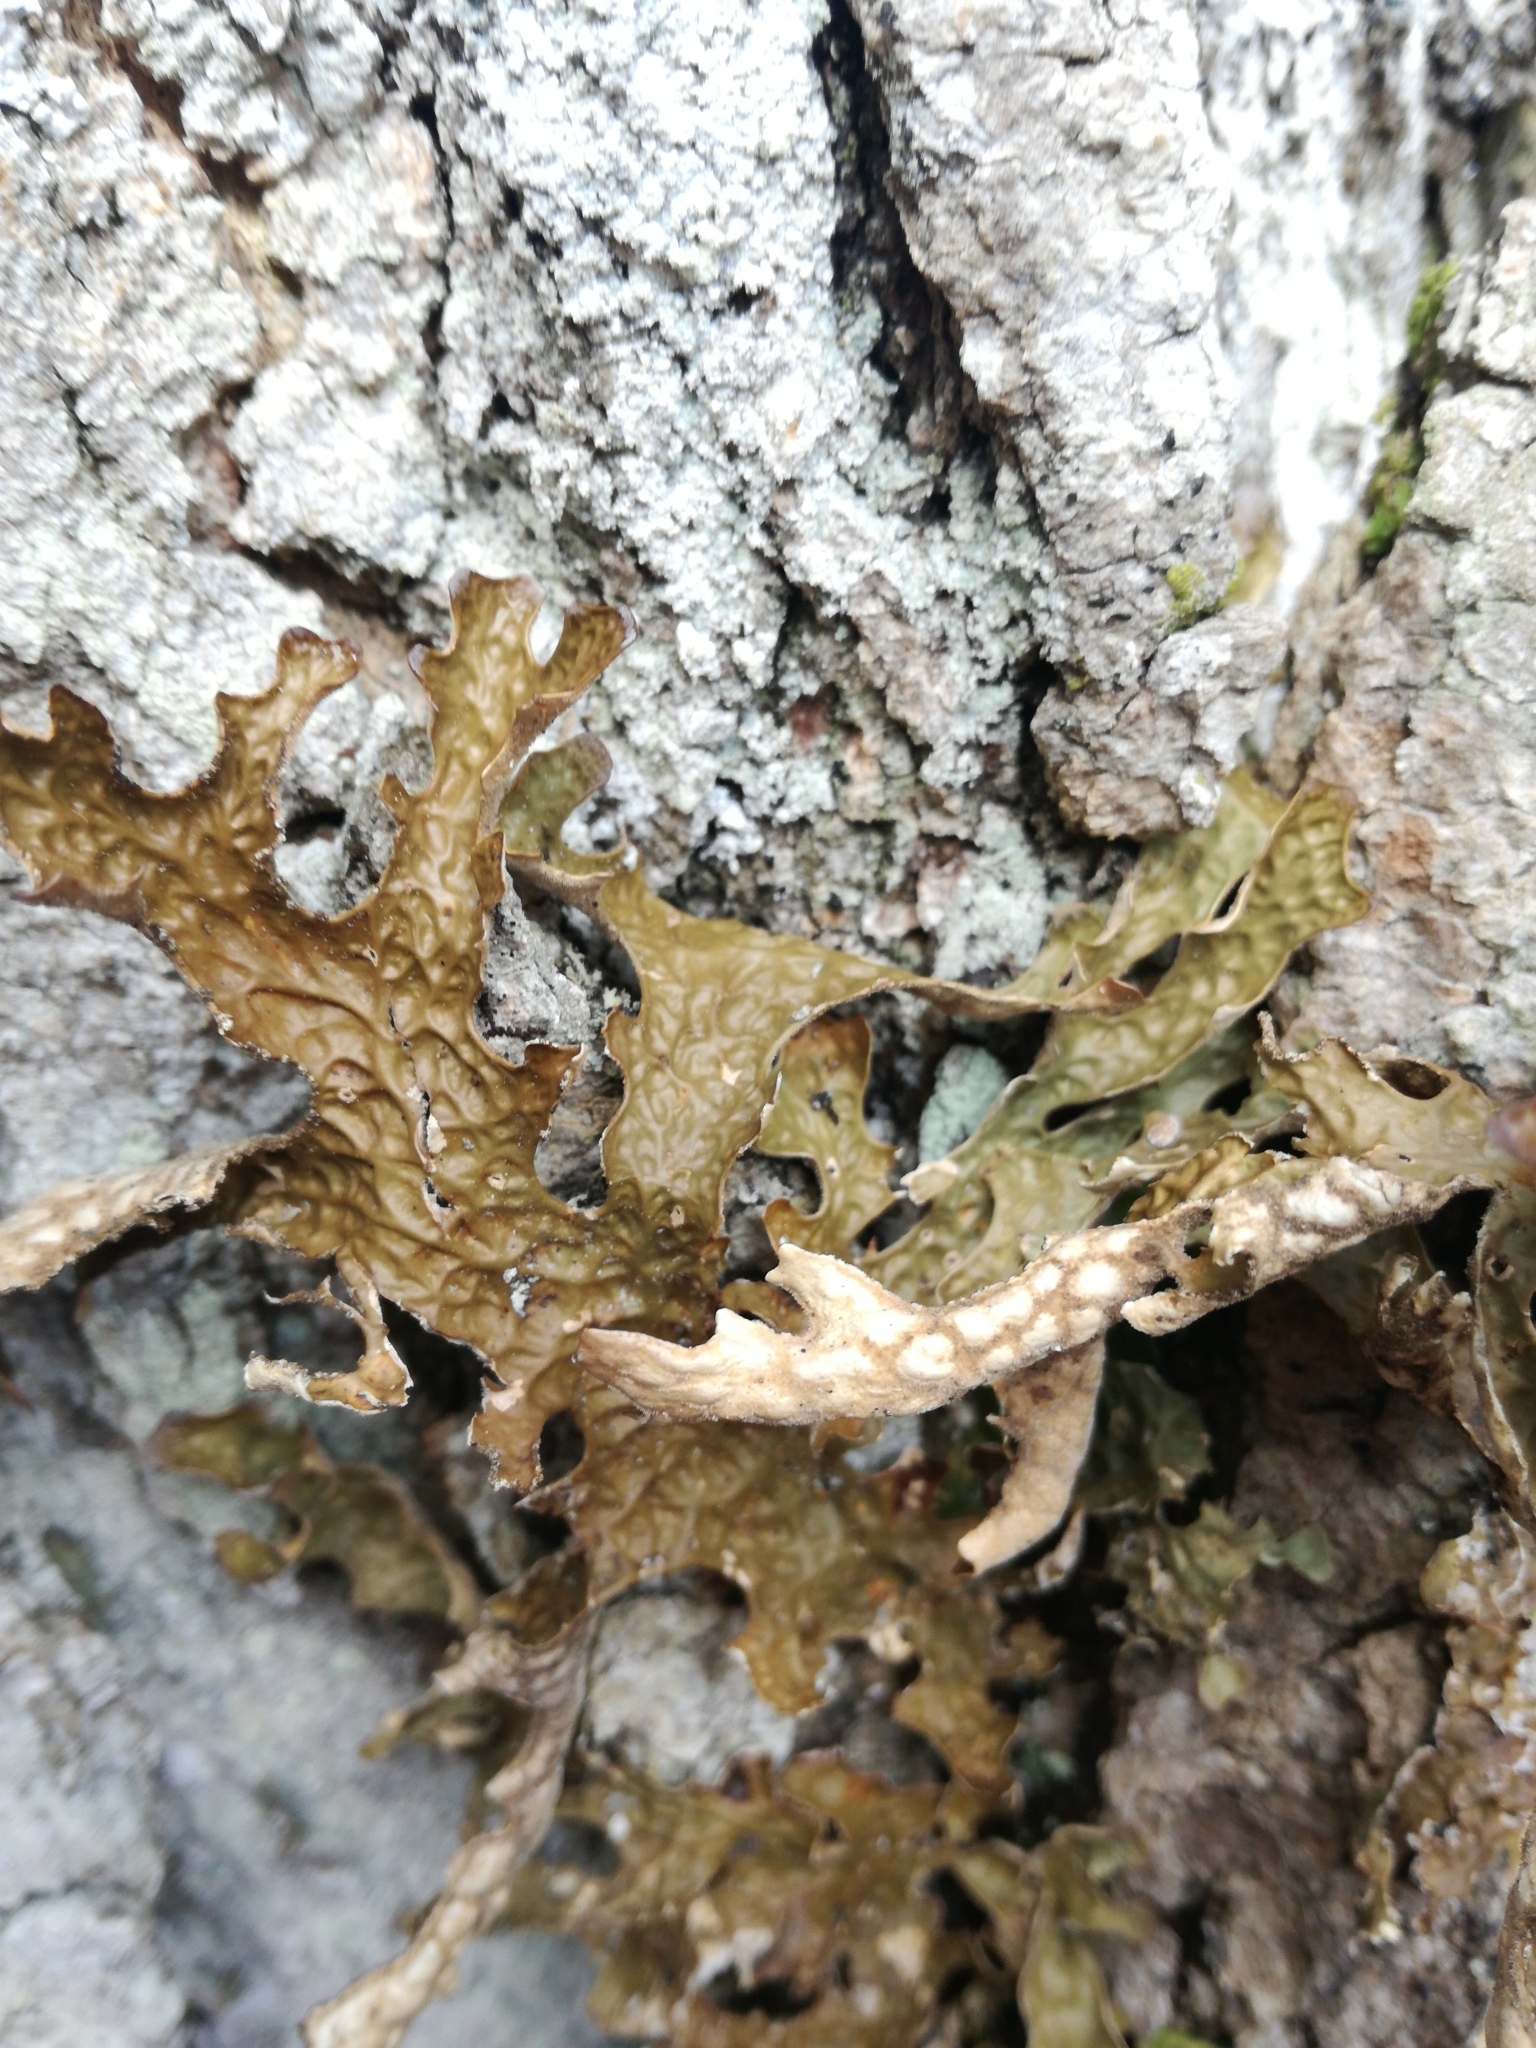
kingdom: Fungi
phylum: Ascomycota
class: Lecanoromycetes
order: Peltigerales
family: Lobariaceae
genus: Lobaria
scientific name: Lobaria pulmonaria
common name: Lungwort
